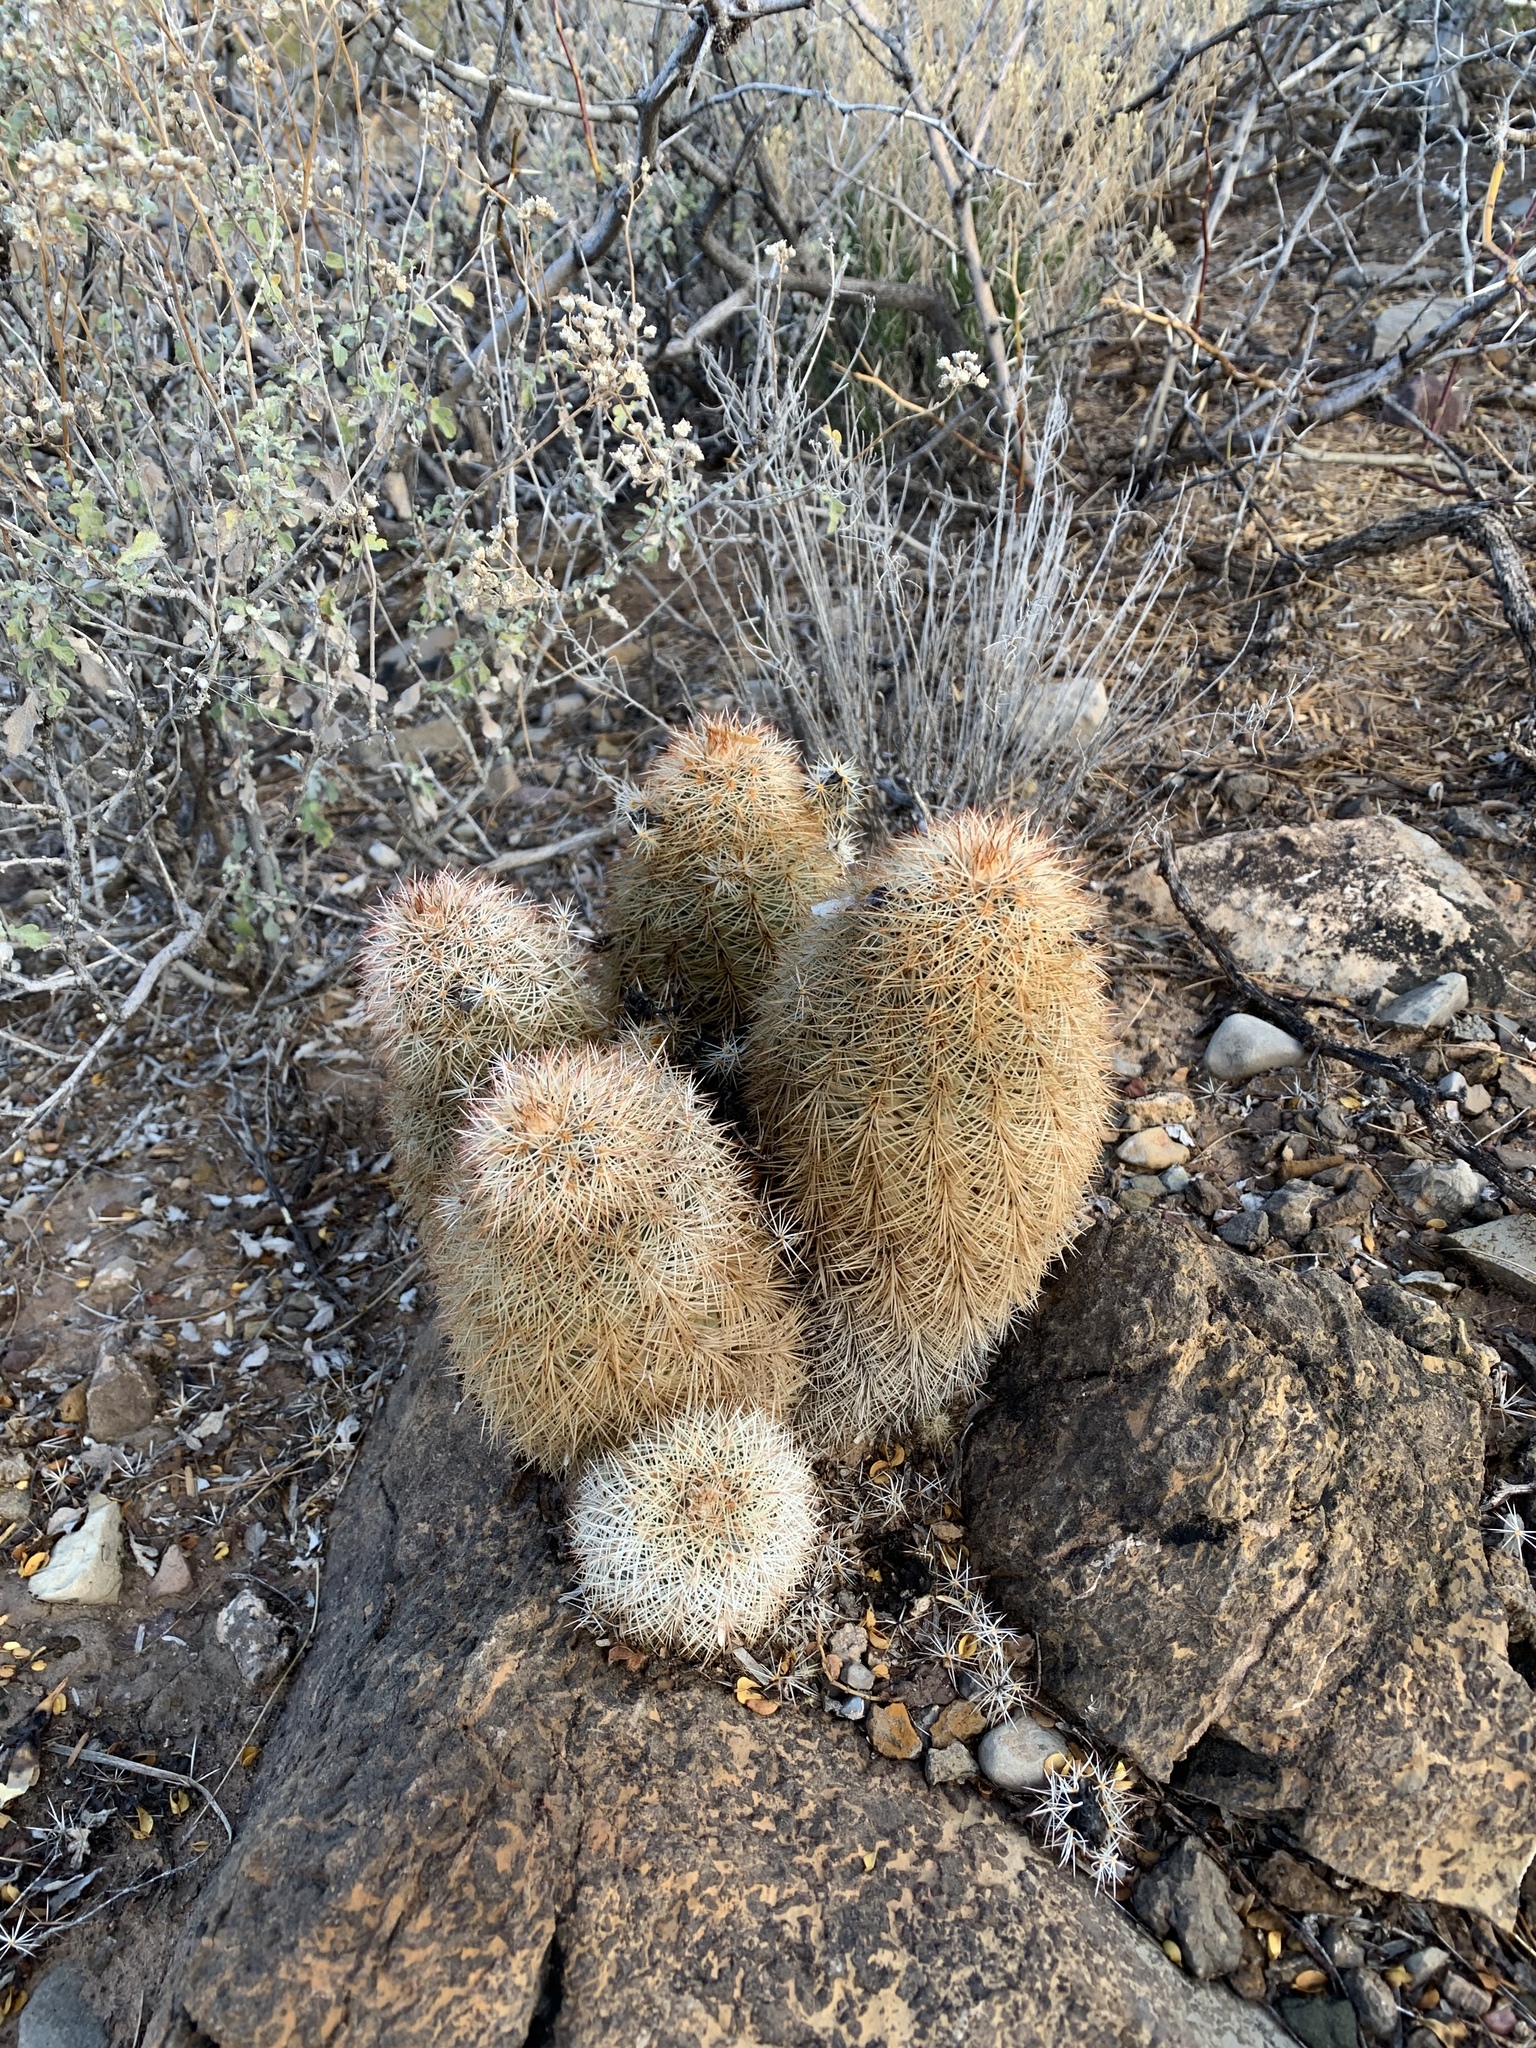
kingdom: Plantae
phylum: Tracheophyta
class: Magnoliopsida
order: Caryophyllales
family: Cactaceae
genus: Echinocereus
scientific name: Echinocereus dasyacanthus
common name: Spiny hedgehog cactus
